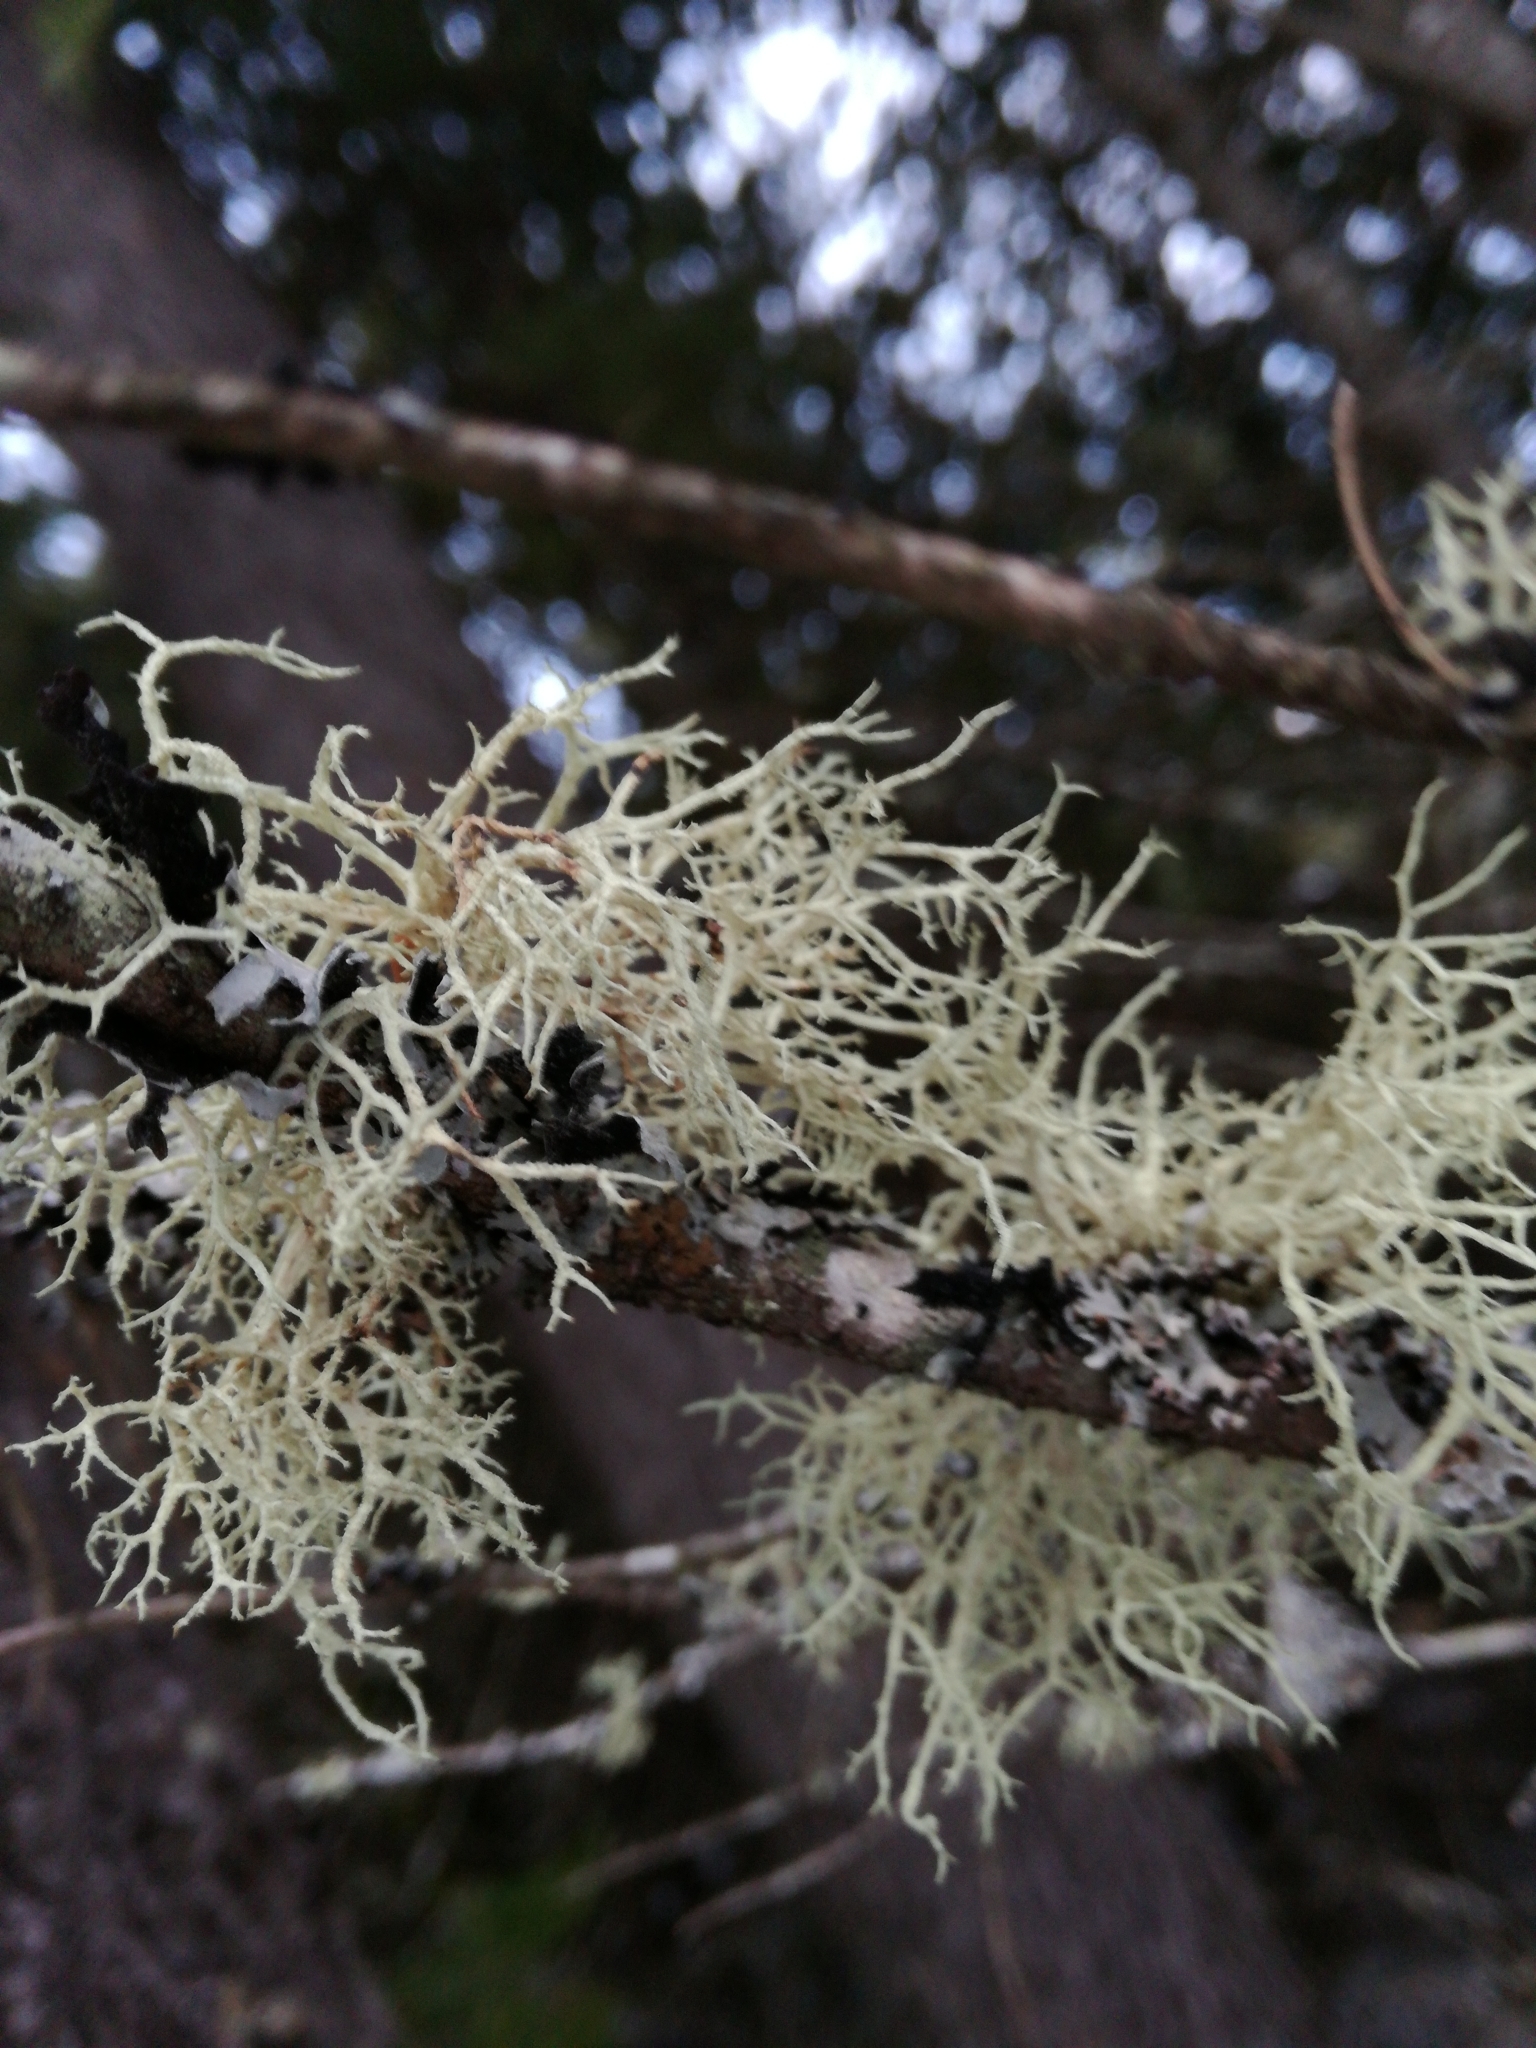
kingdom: Fungi
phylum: Ascomycota
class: Lecanoromycetes
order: Lecanorales
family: Parmeliaceae
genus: Evernia
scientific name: Evernia mesomorpha
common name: Boreal oak moss lichen
